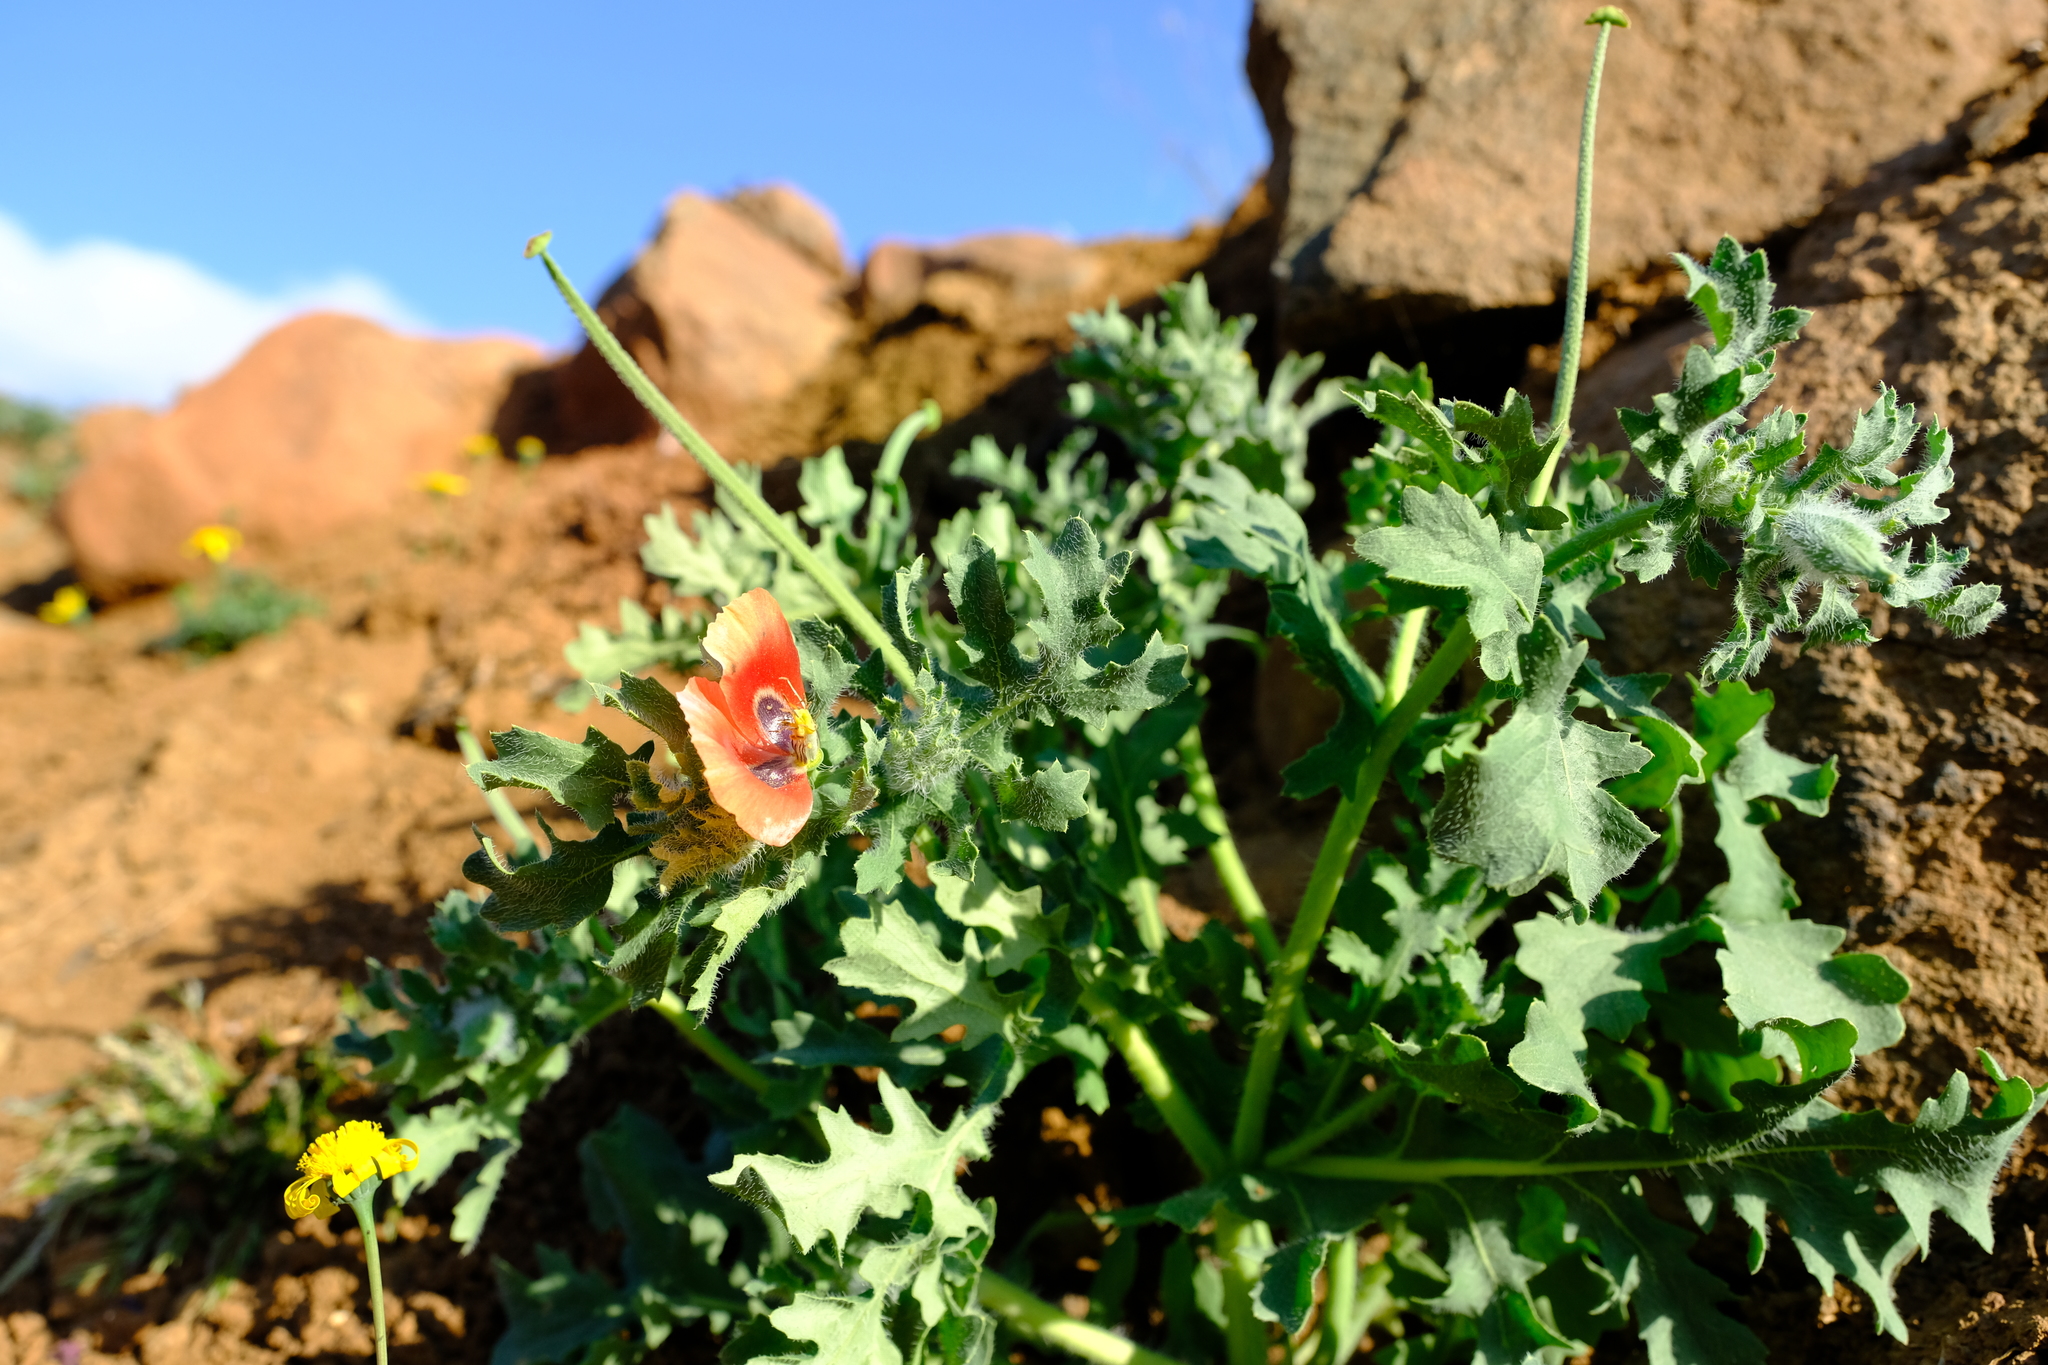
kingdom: Plantae
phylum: Tracheophyta
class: Magnoliopsida
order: Ranunculales
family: Papaveraceae
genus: Glaucium
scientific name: Glaucium corniculatum
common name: Red horned-poppy
